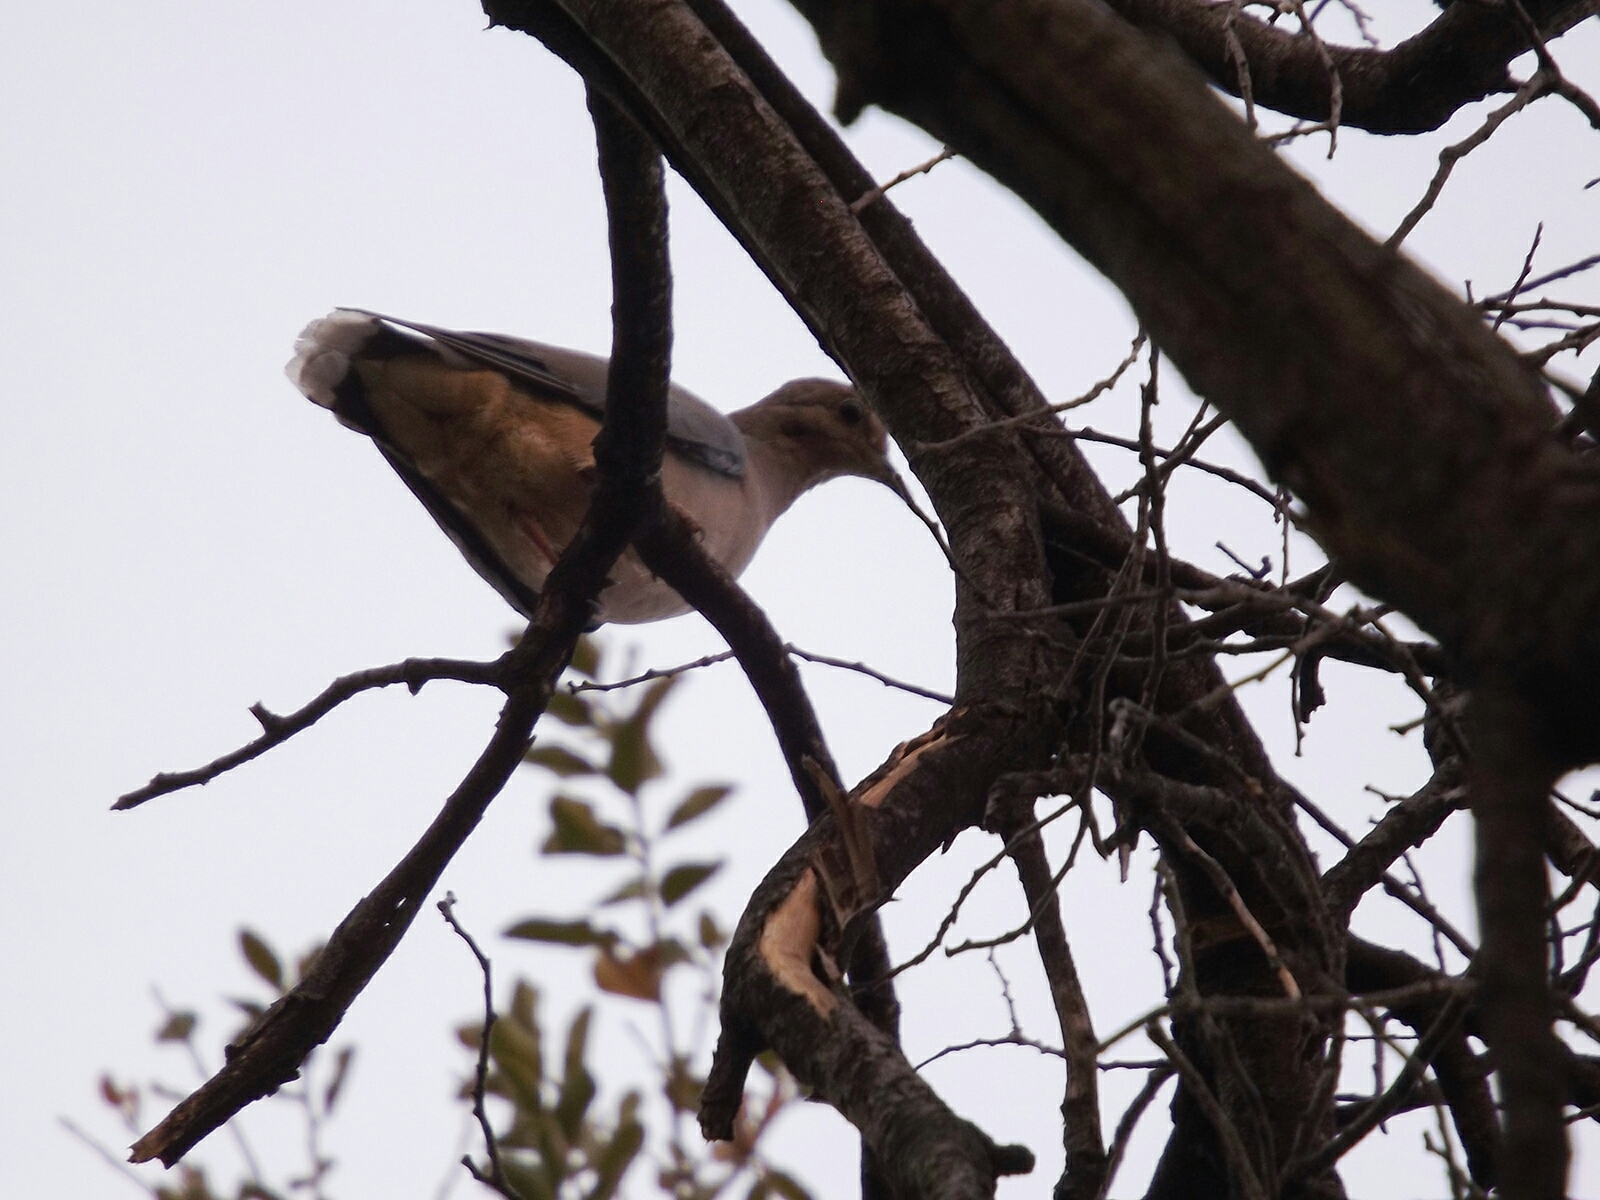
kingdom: Animalia
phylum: Chordata
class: Aves
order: Columbiformes
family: Columbidae
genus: Zenaida
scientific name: Zenaida auriculata
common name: Eared dove
